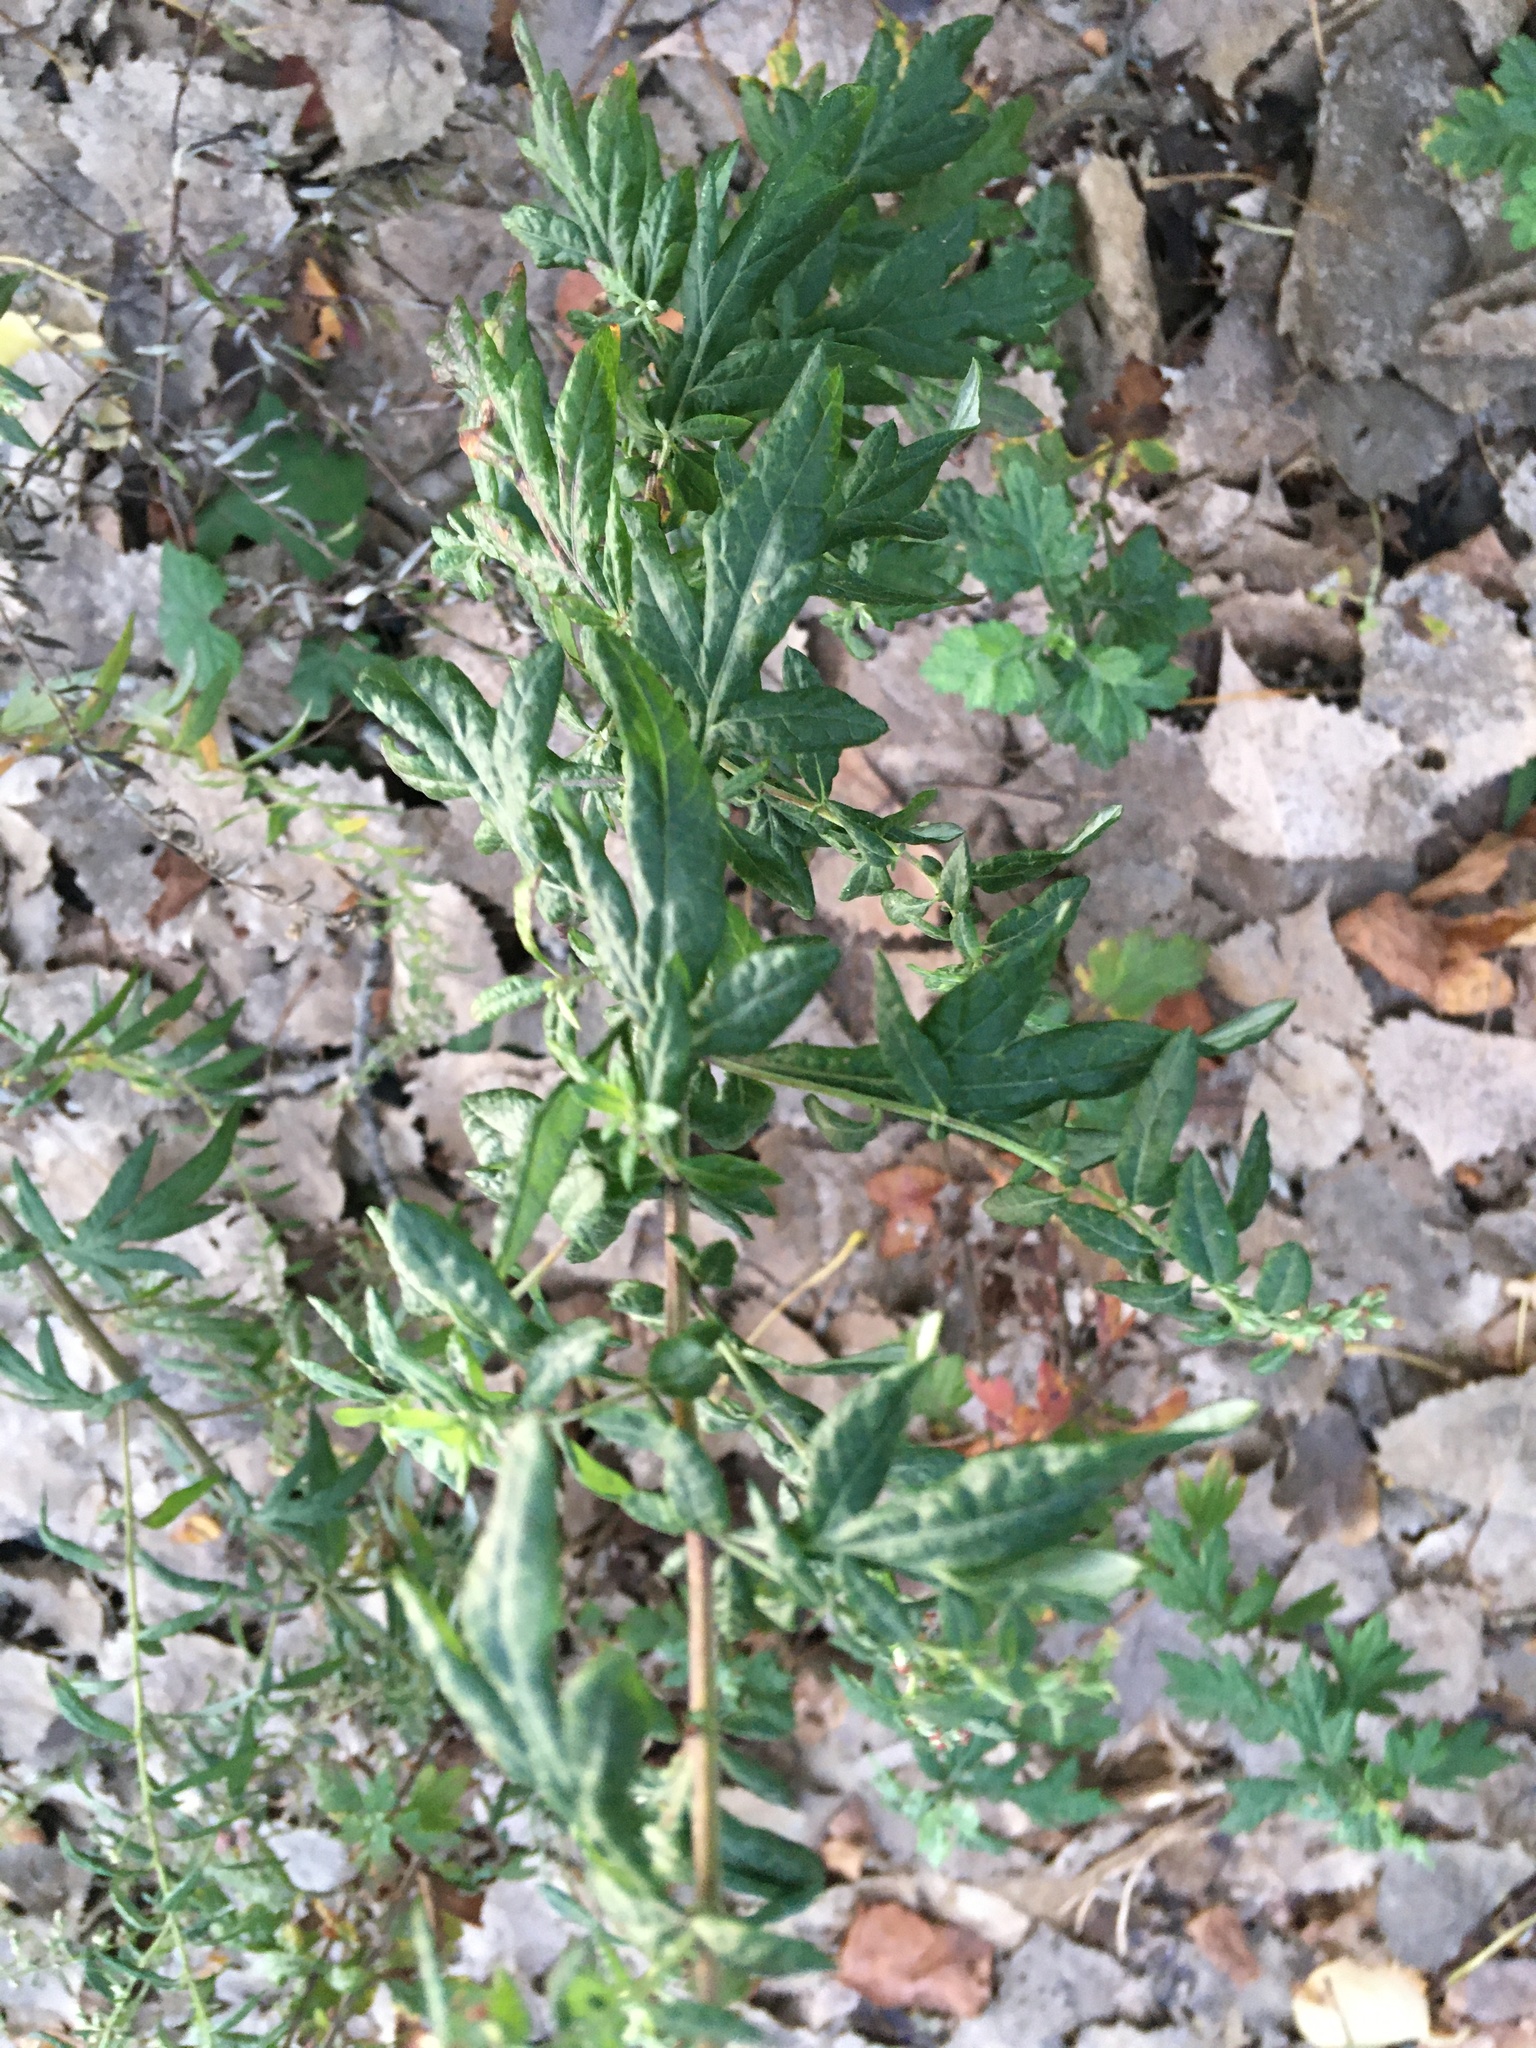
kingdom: Plantae
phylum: Tracheophyta
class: Magnoliopsida
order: Asterales
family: Asteraceae
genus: Artemisia
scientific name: Artemisia vulgaris
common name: Mugwort
